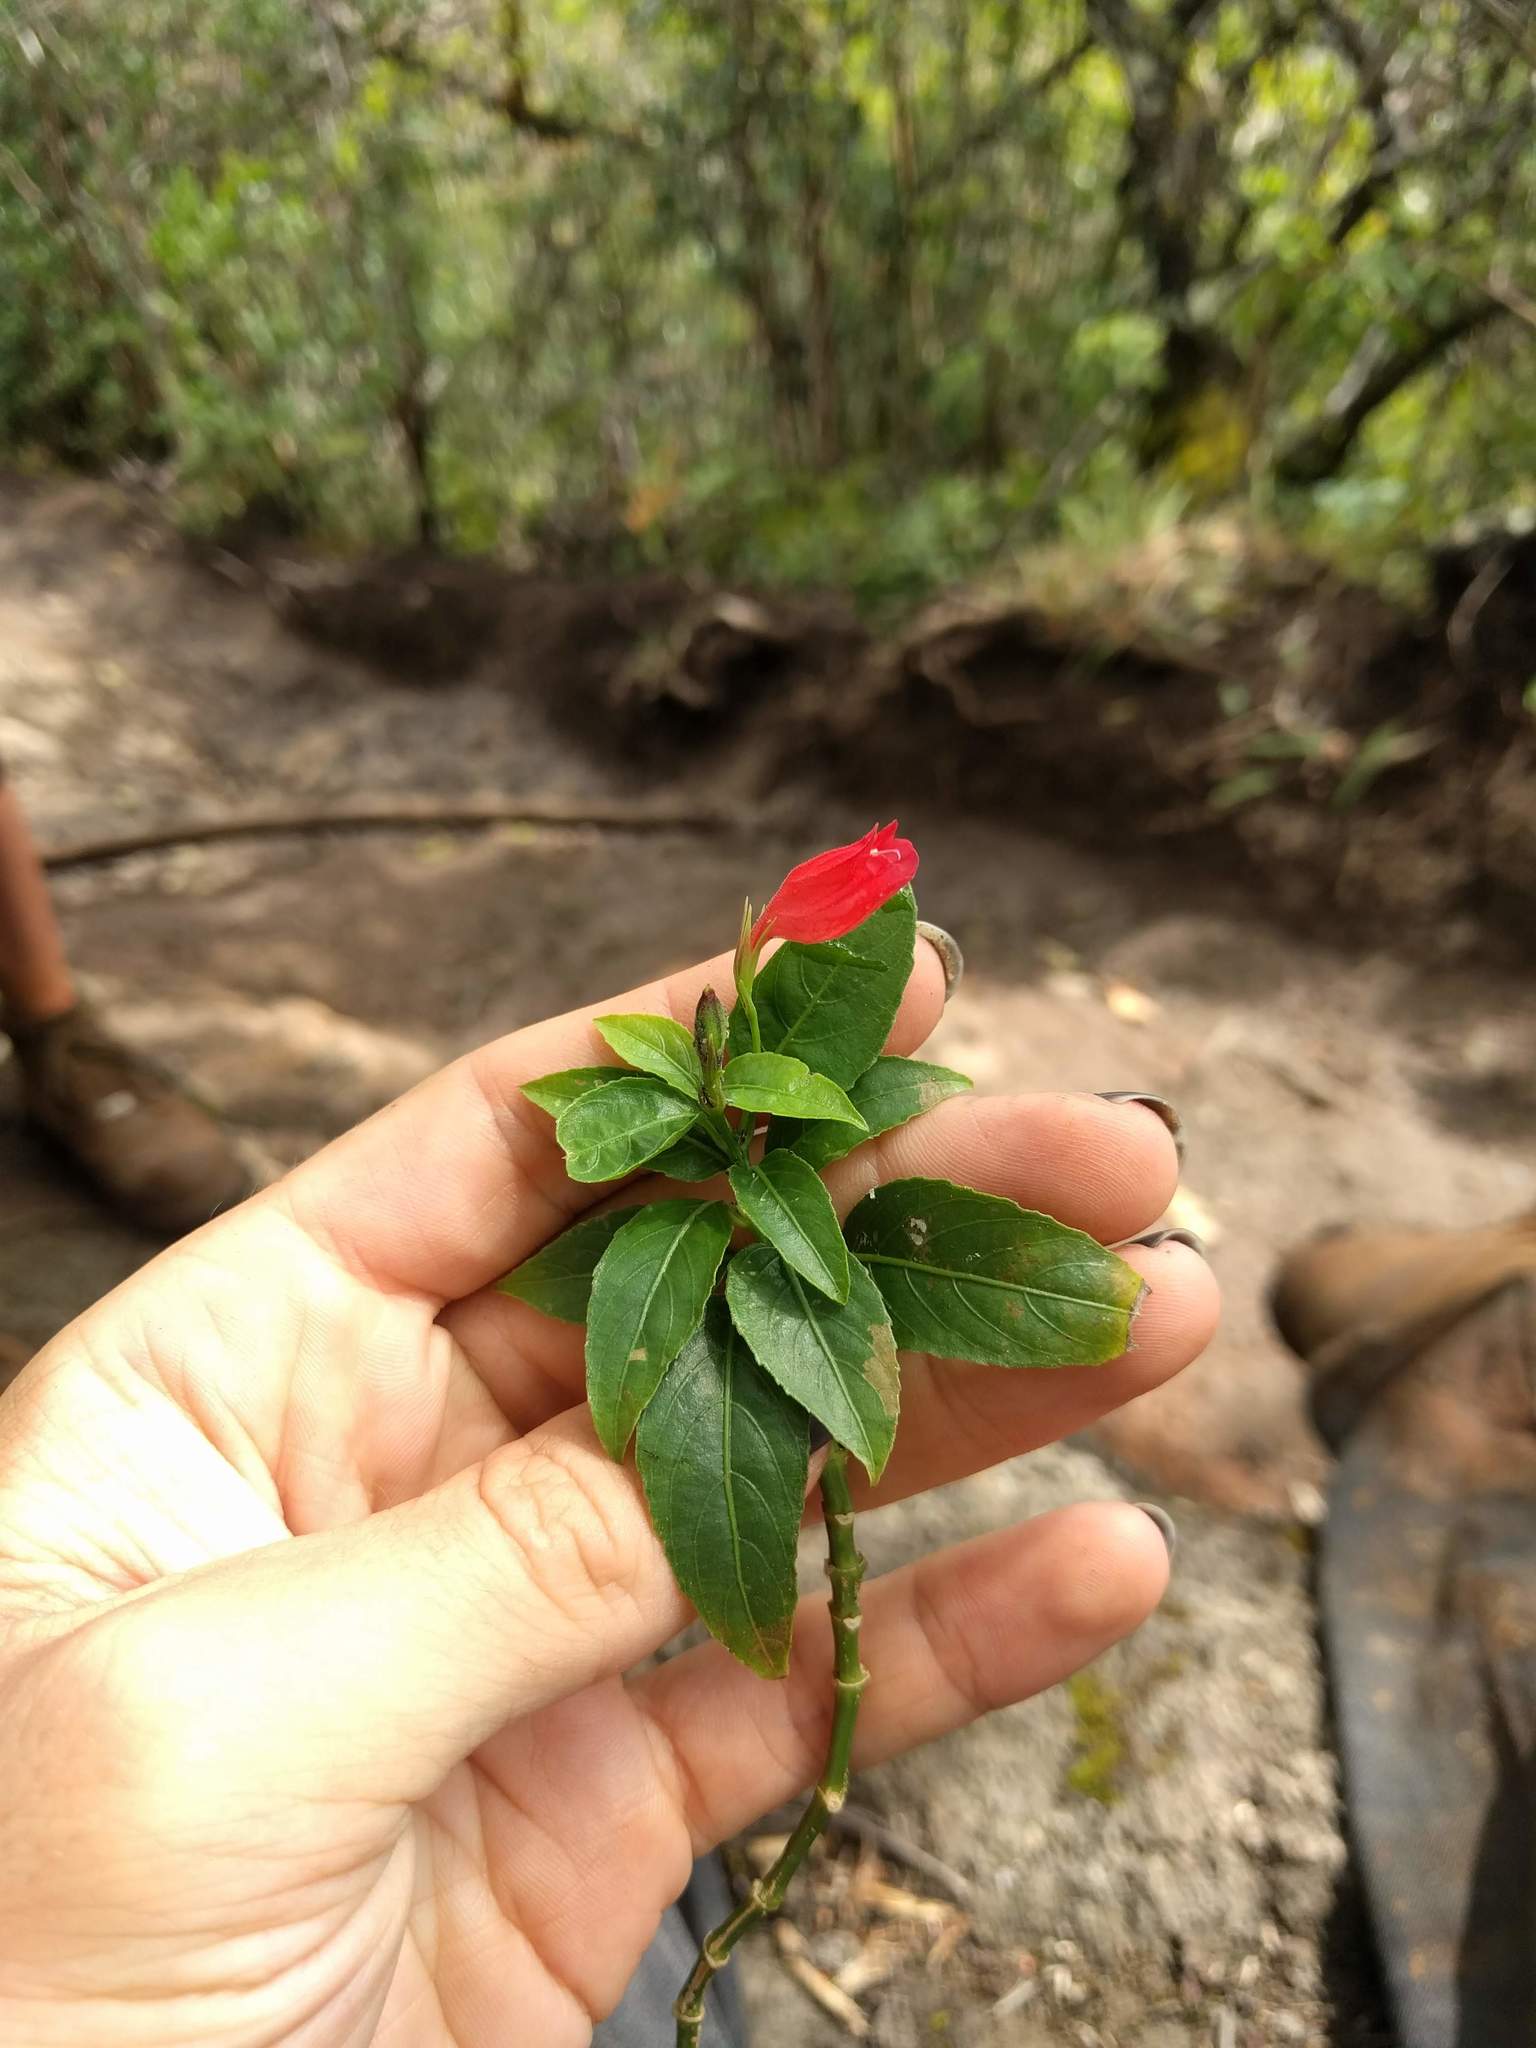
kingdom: Plantae
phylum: Tracheophyta
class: Magnoliopsida
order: Lamiales
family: Acanthaceae
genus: Ruellia
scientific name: Ruellia brevifolia
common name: Tropical wild petunia
